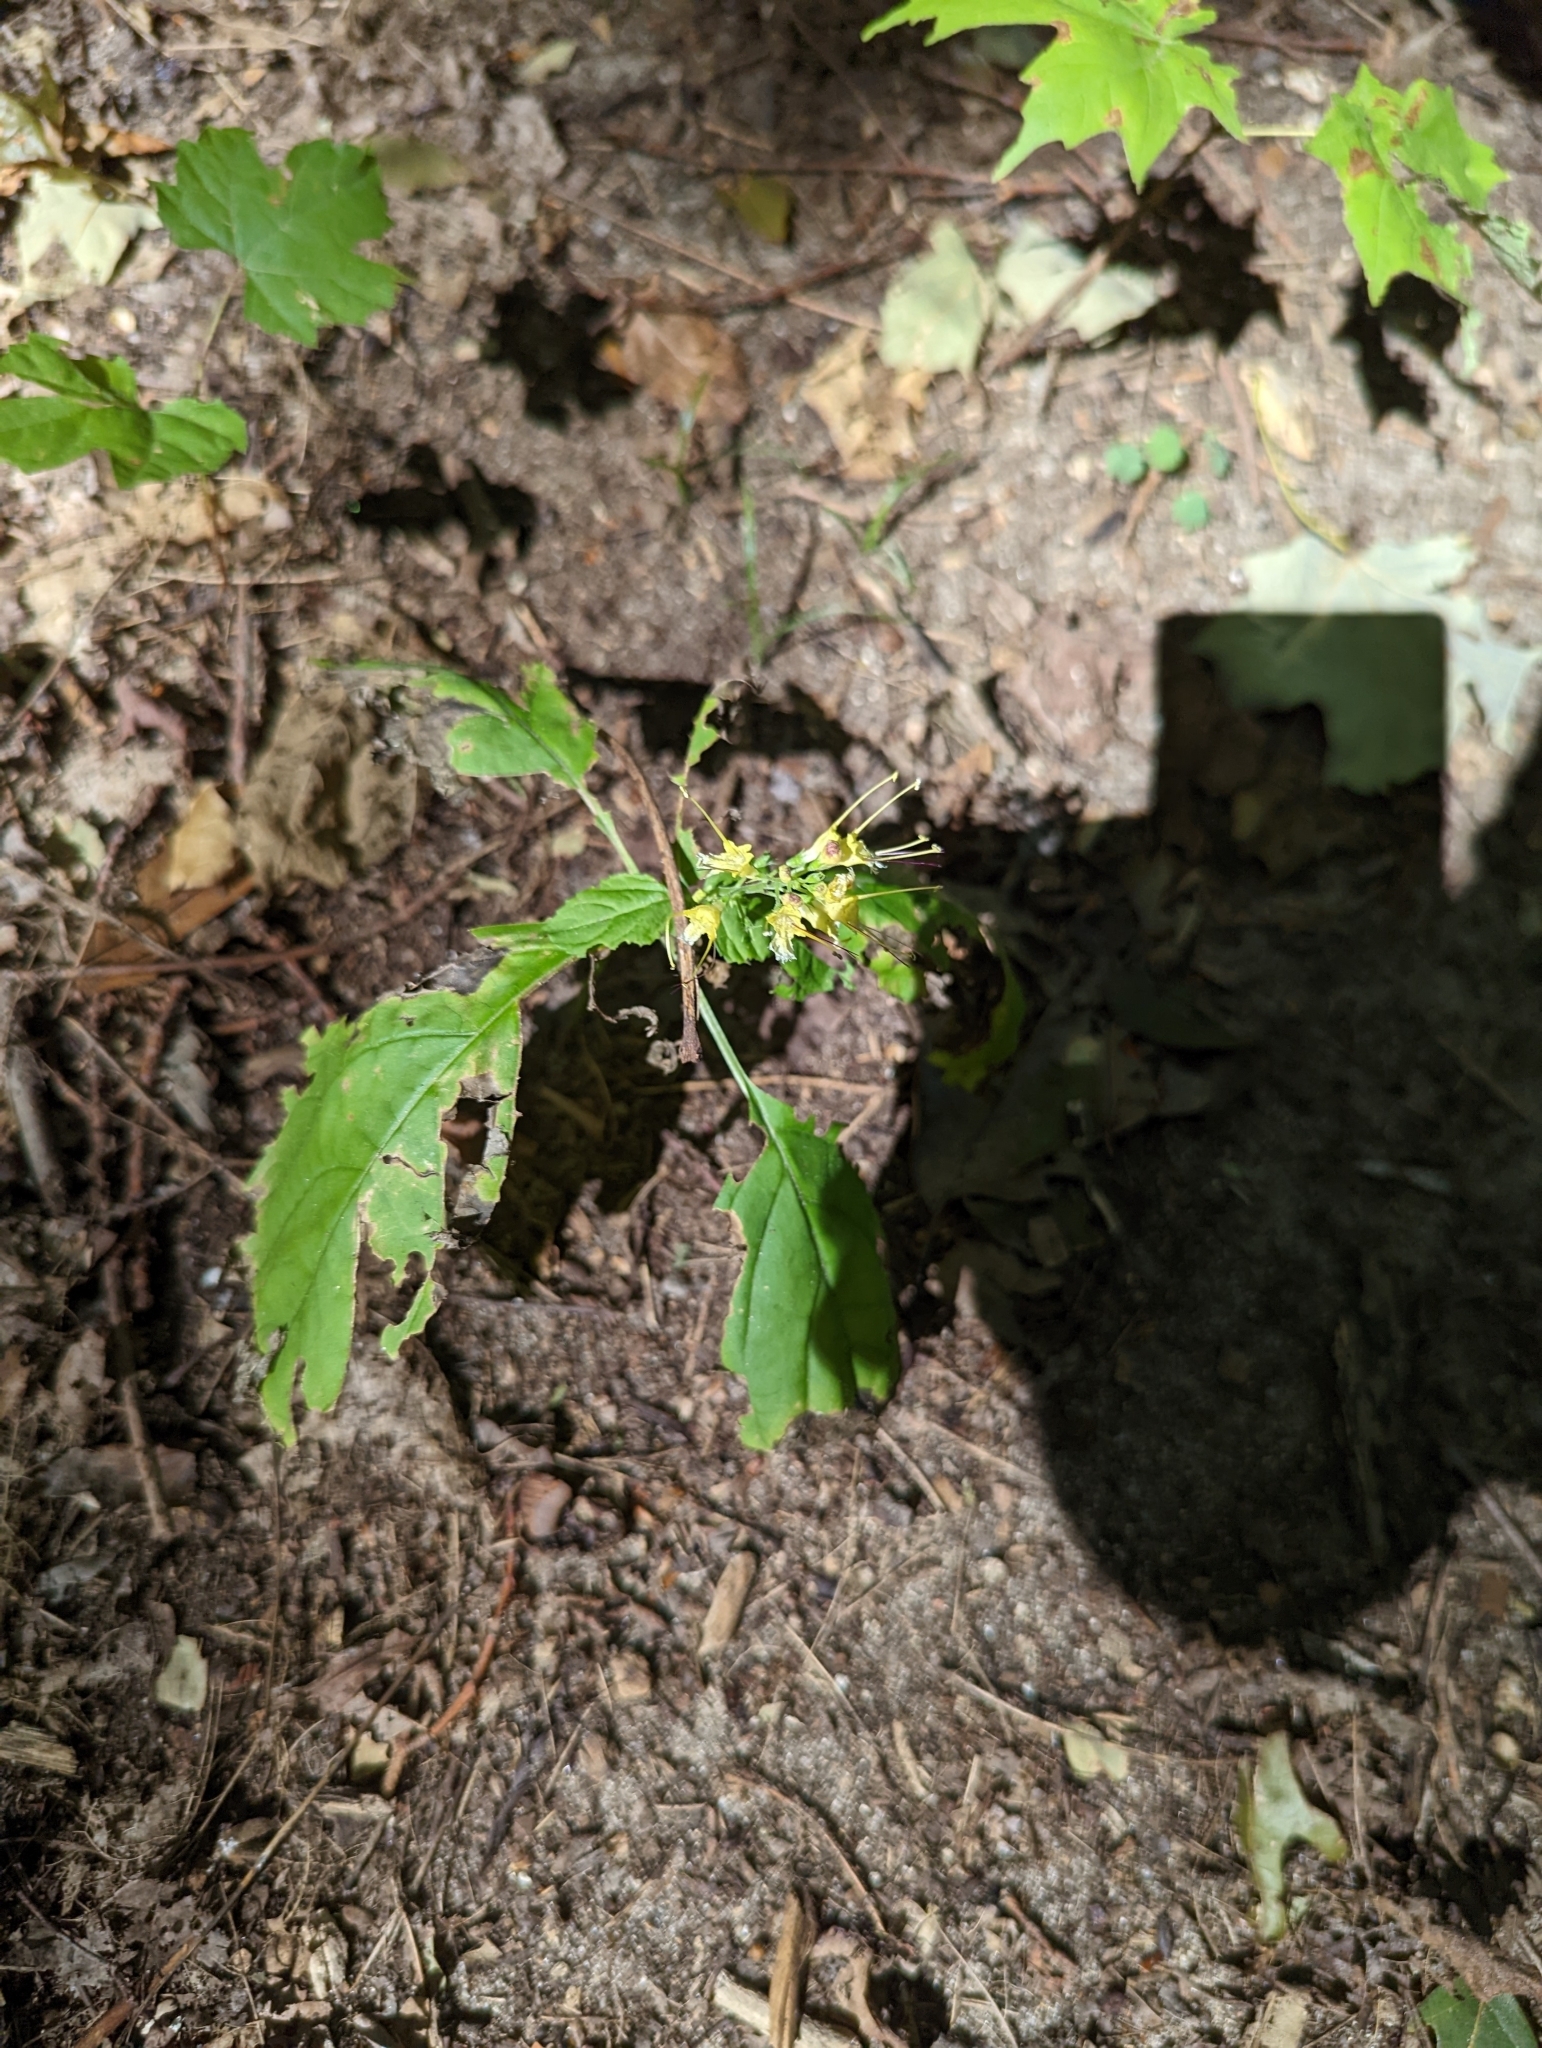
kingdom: Plantae
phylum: Tracheophyta
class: Magnoliopsida
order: Lamiales
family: Lamiaceae
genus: Collinsonia
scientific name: Collinsonia canadensis
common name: Northern horsebalm
